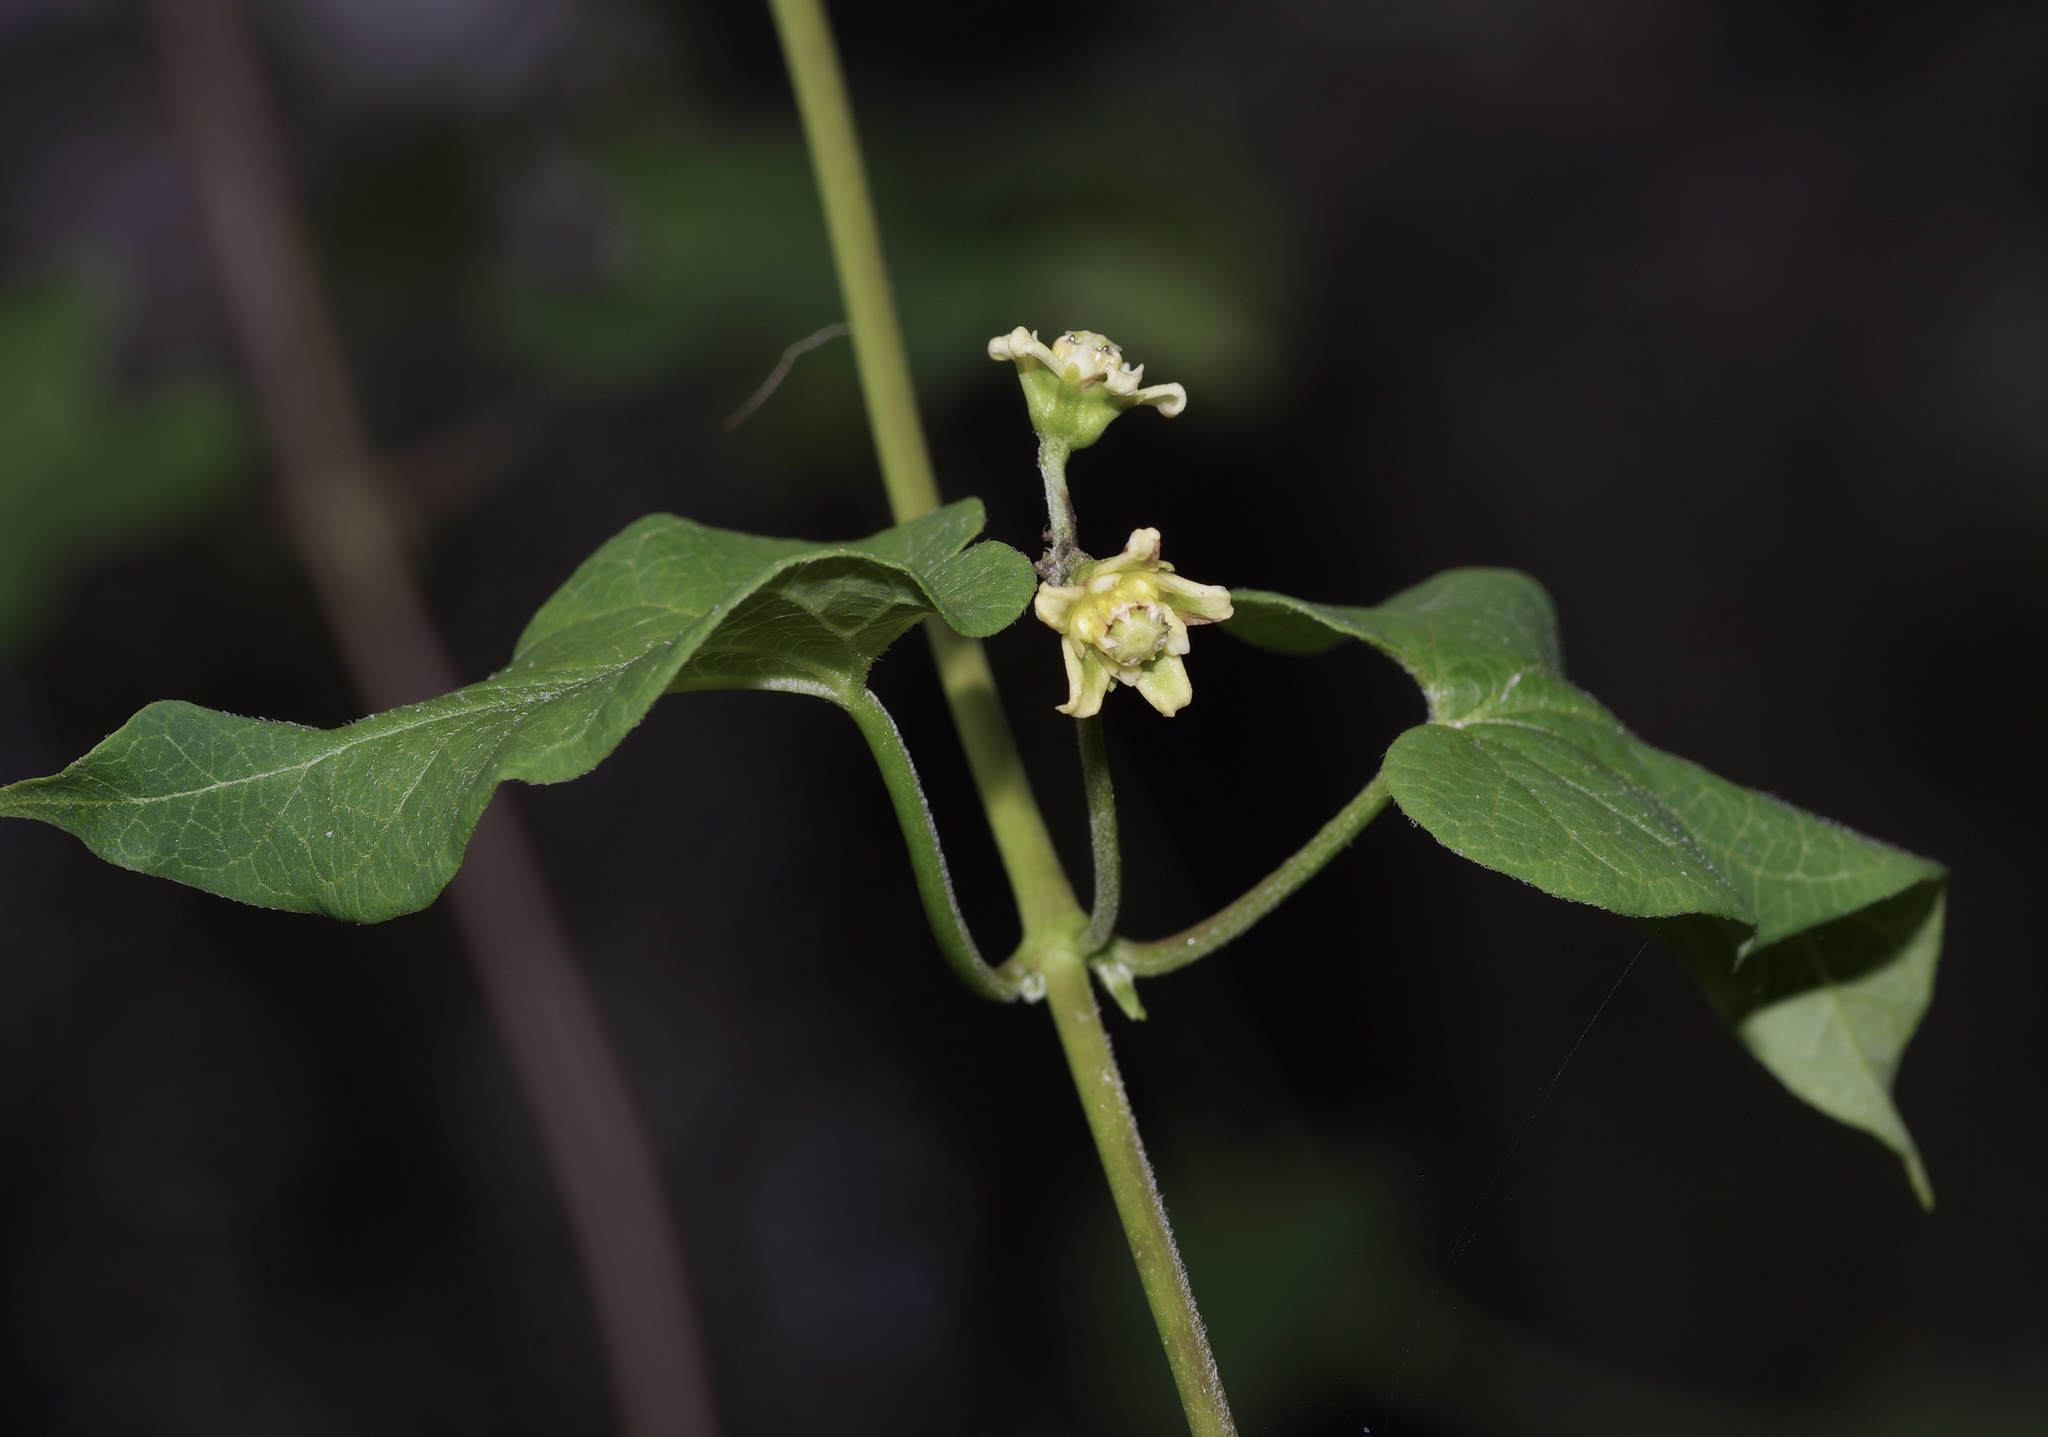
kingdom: Plantae
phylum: Tracheophyta
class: Magnoliopsida
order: Gentianales
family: Apocynaceae
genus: Cynanchum
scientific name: Cynanchum racemosum
